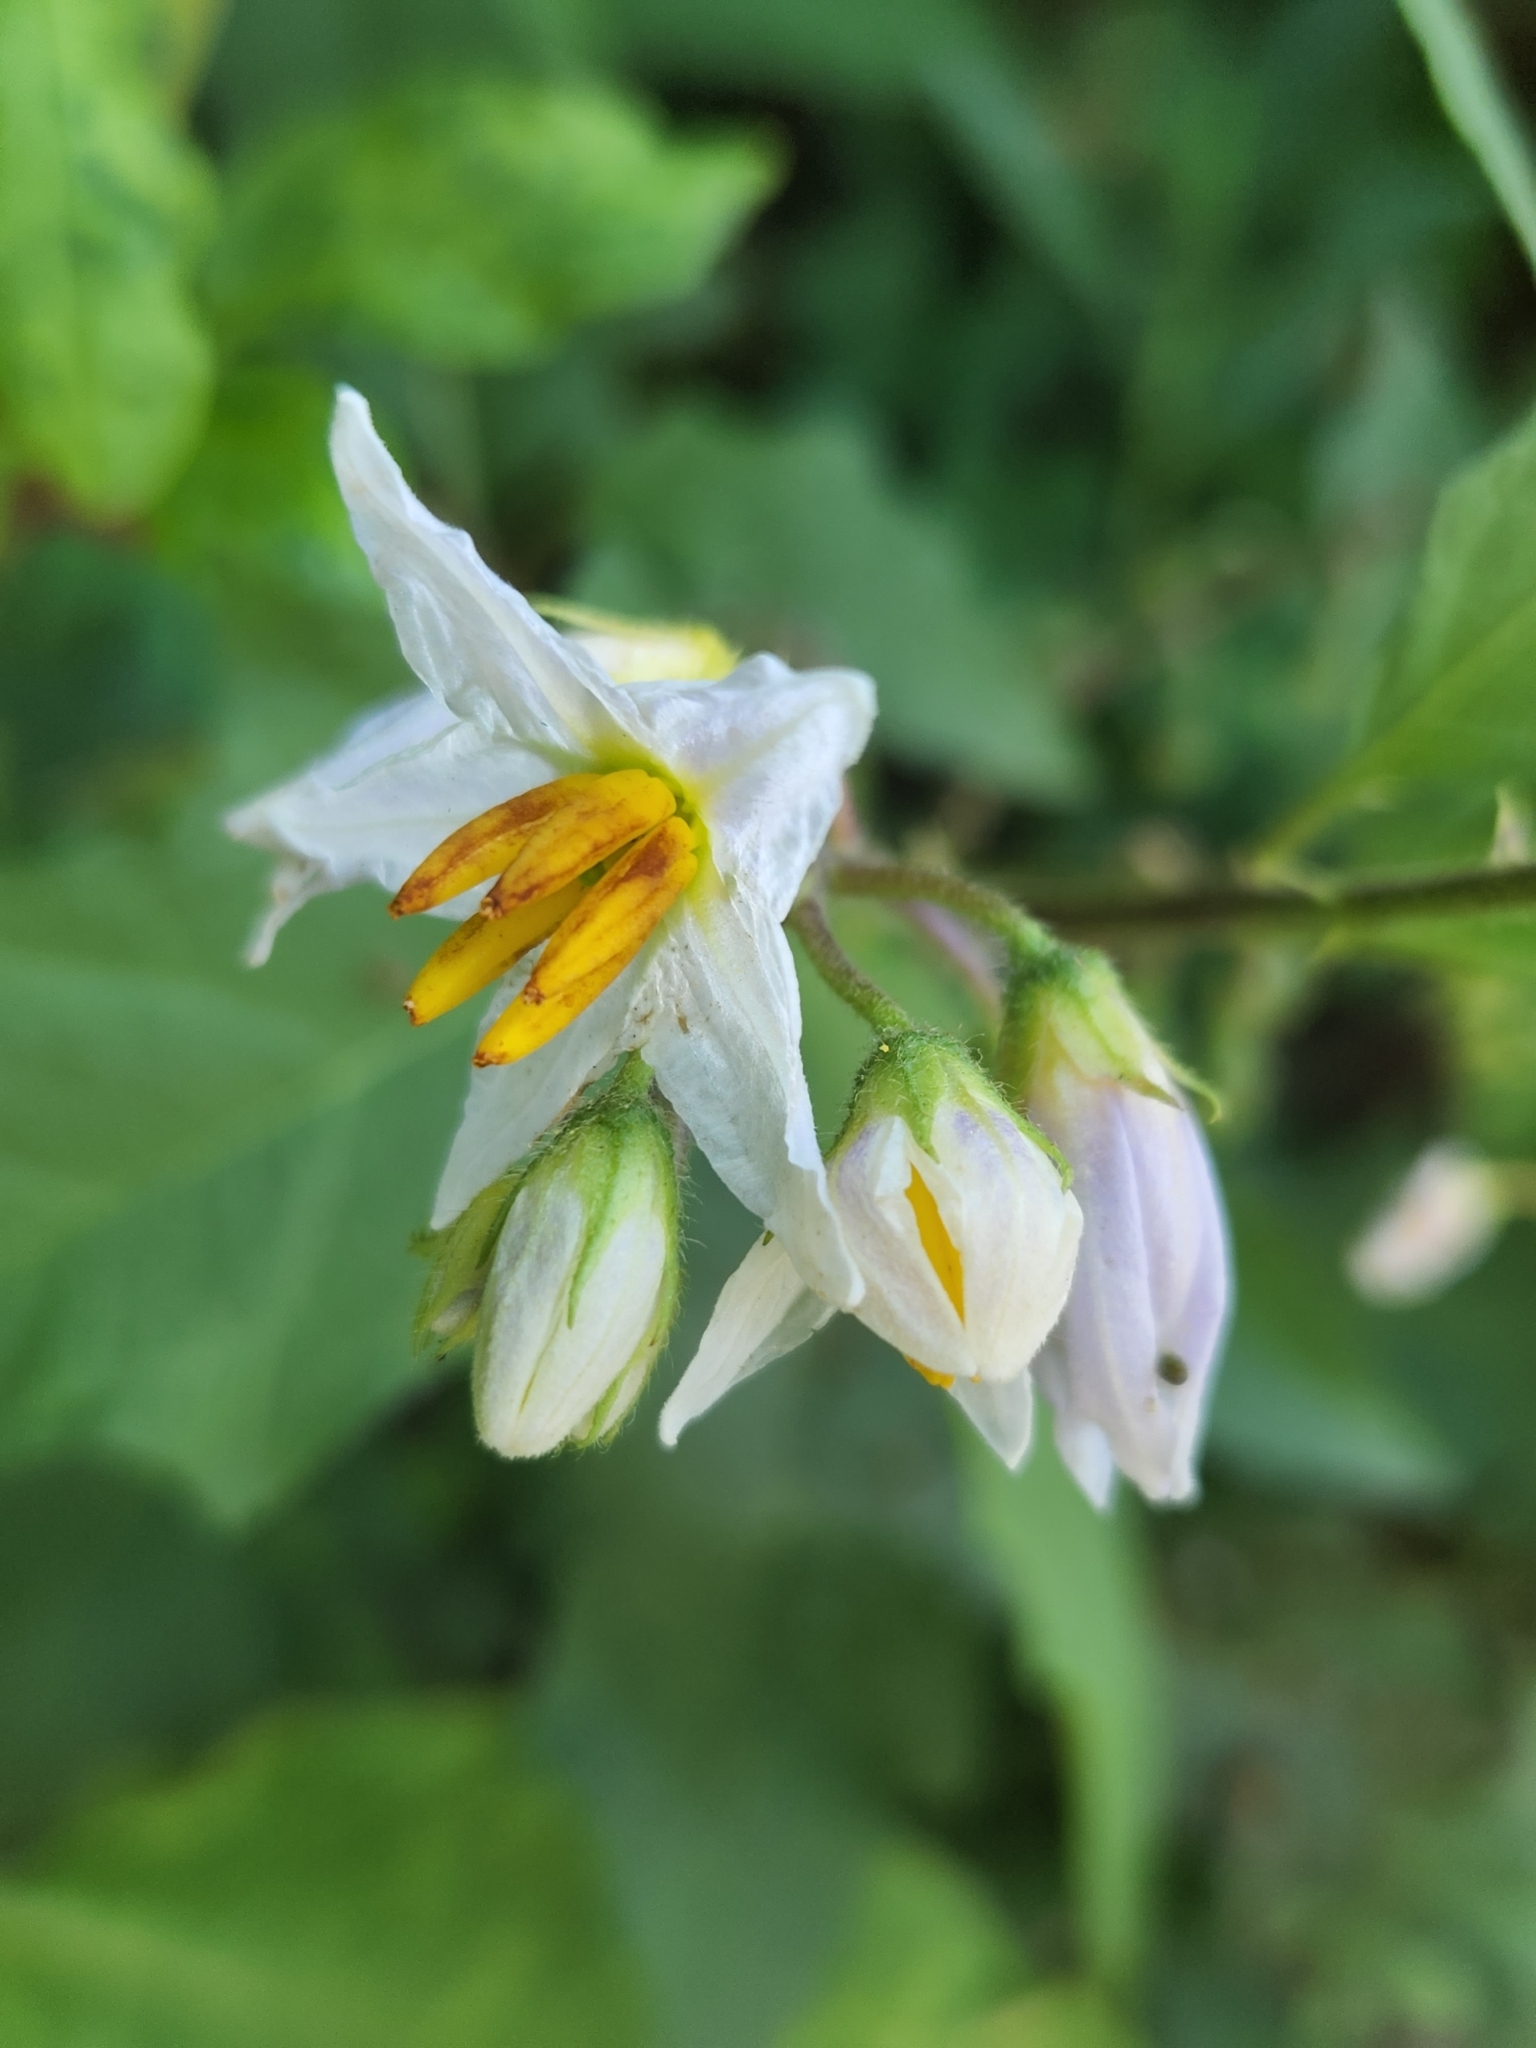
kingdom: Plantae
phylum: Tracheophyta
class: Magnoliopsida
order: Solanales
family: Solanaceae
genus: Solanum
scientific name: Solanum carolinense
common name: Horse-nettle
